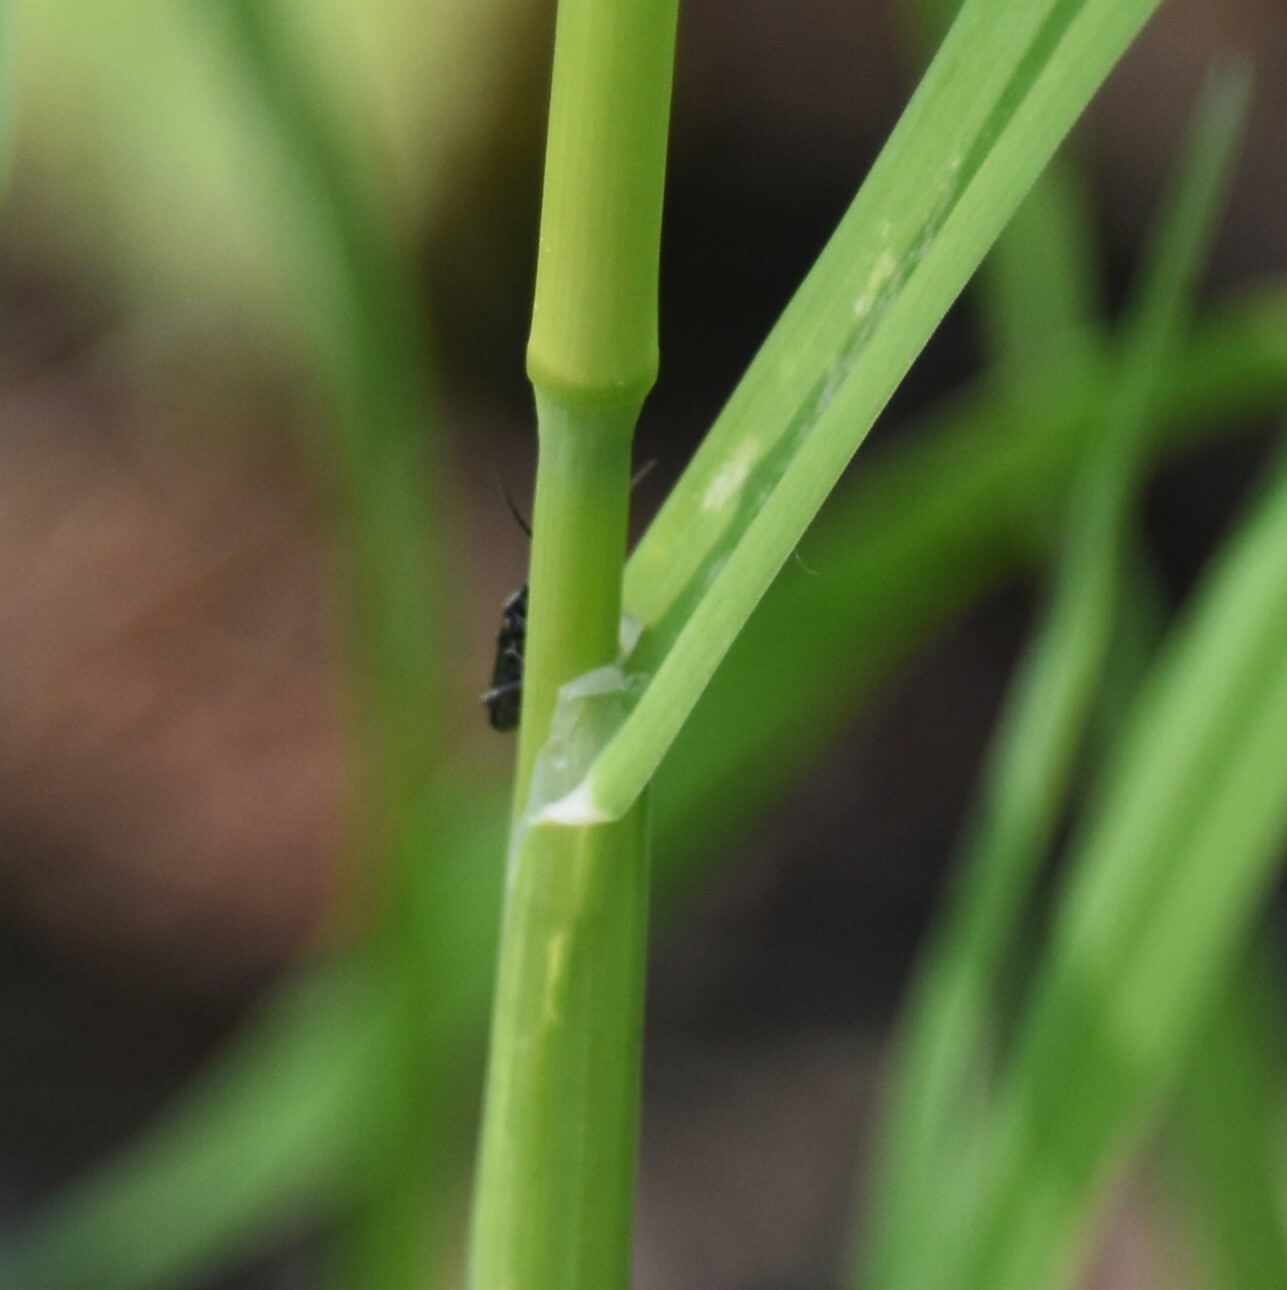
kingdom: Plantae
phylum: Tracheophyta
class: Liliopsida
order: Poales
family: Poaceae
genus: Dactylis
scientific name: Dactylis glomerata
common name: Orchardgrass
